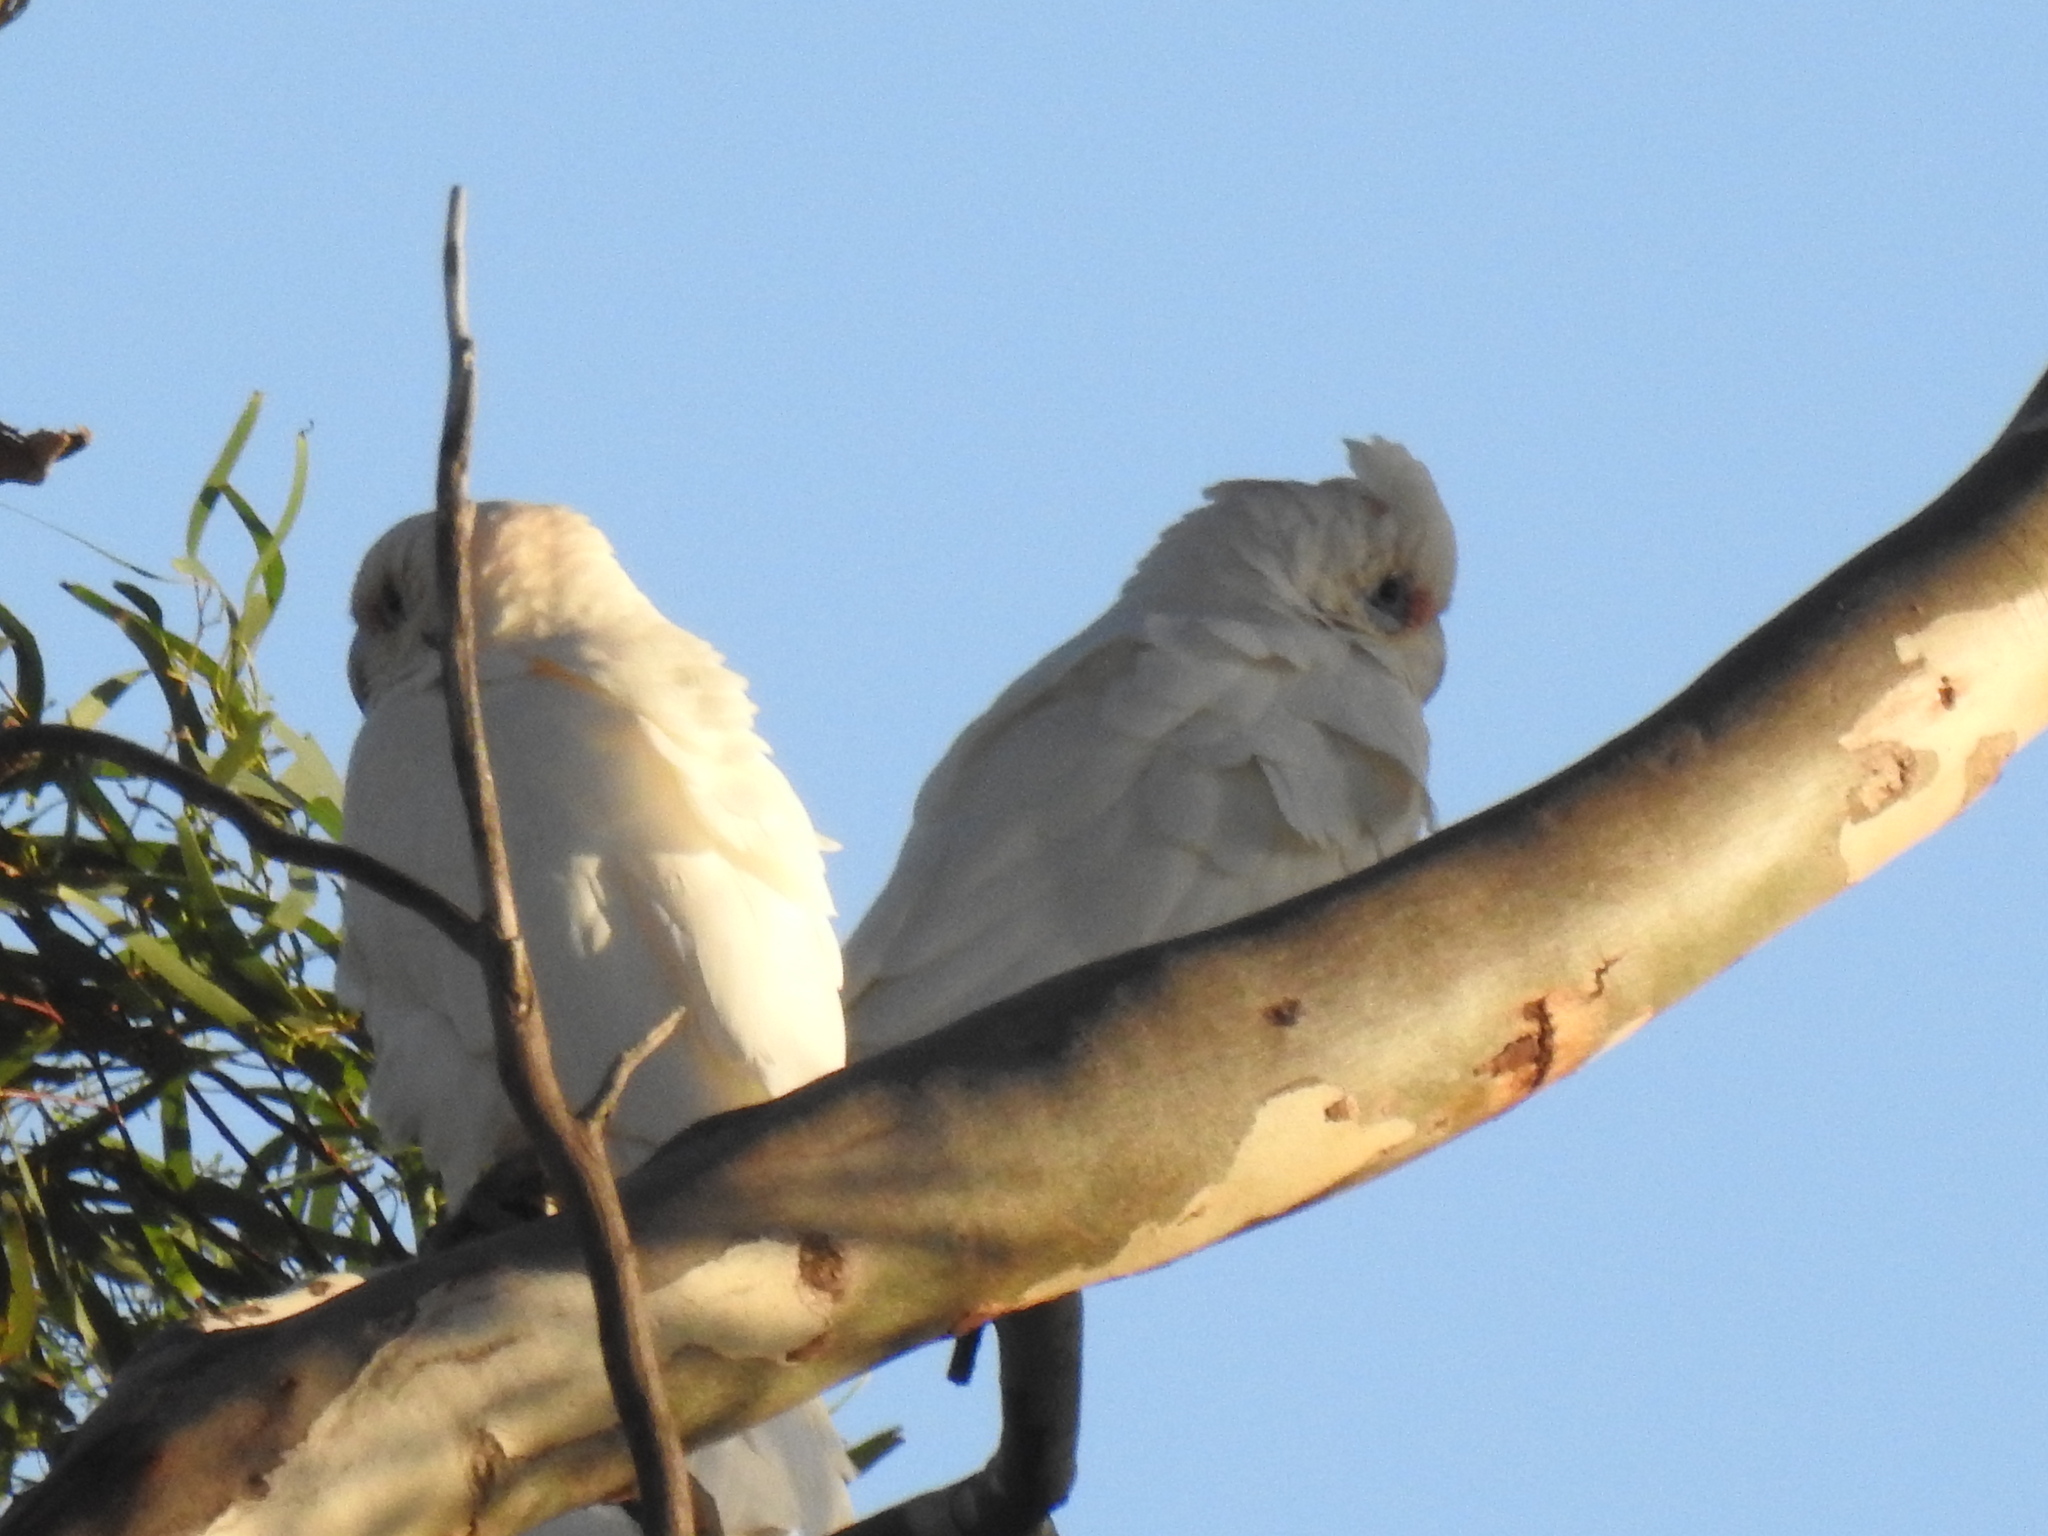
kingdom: Animalia
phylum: Chordata
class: Aves
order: Psittaciformes
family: Psittacidae
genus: Cacatua
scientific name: Cacatua sanguinea
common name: Little corella
